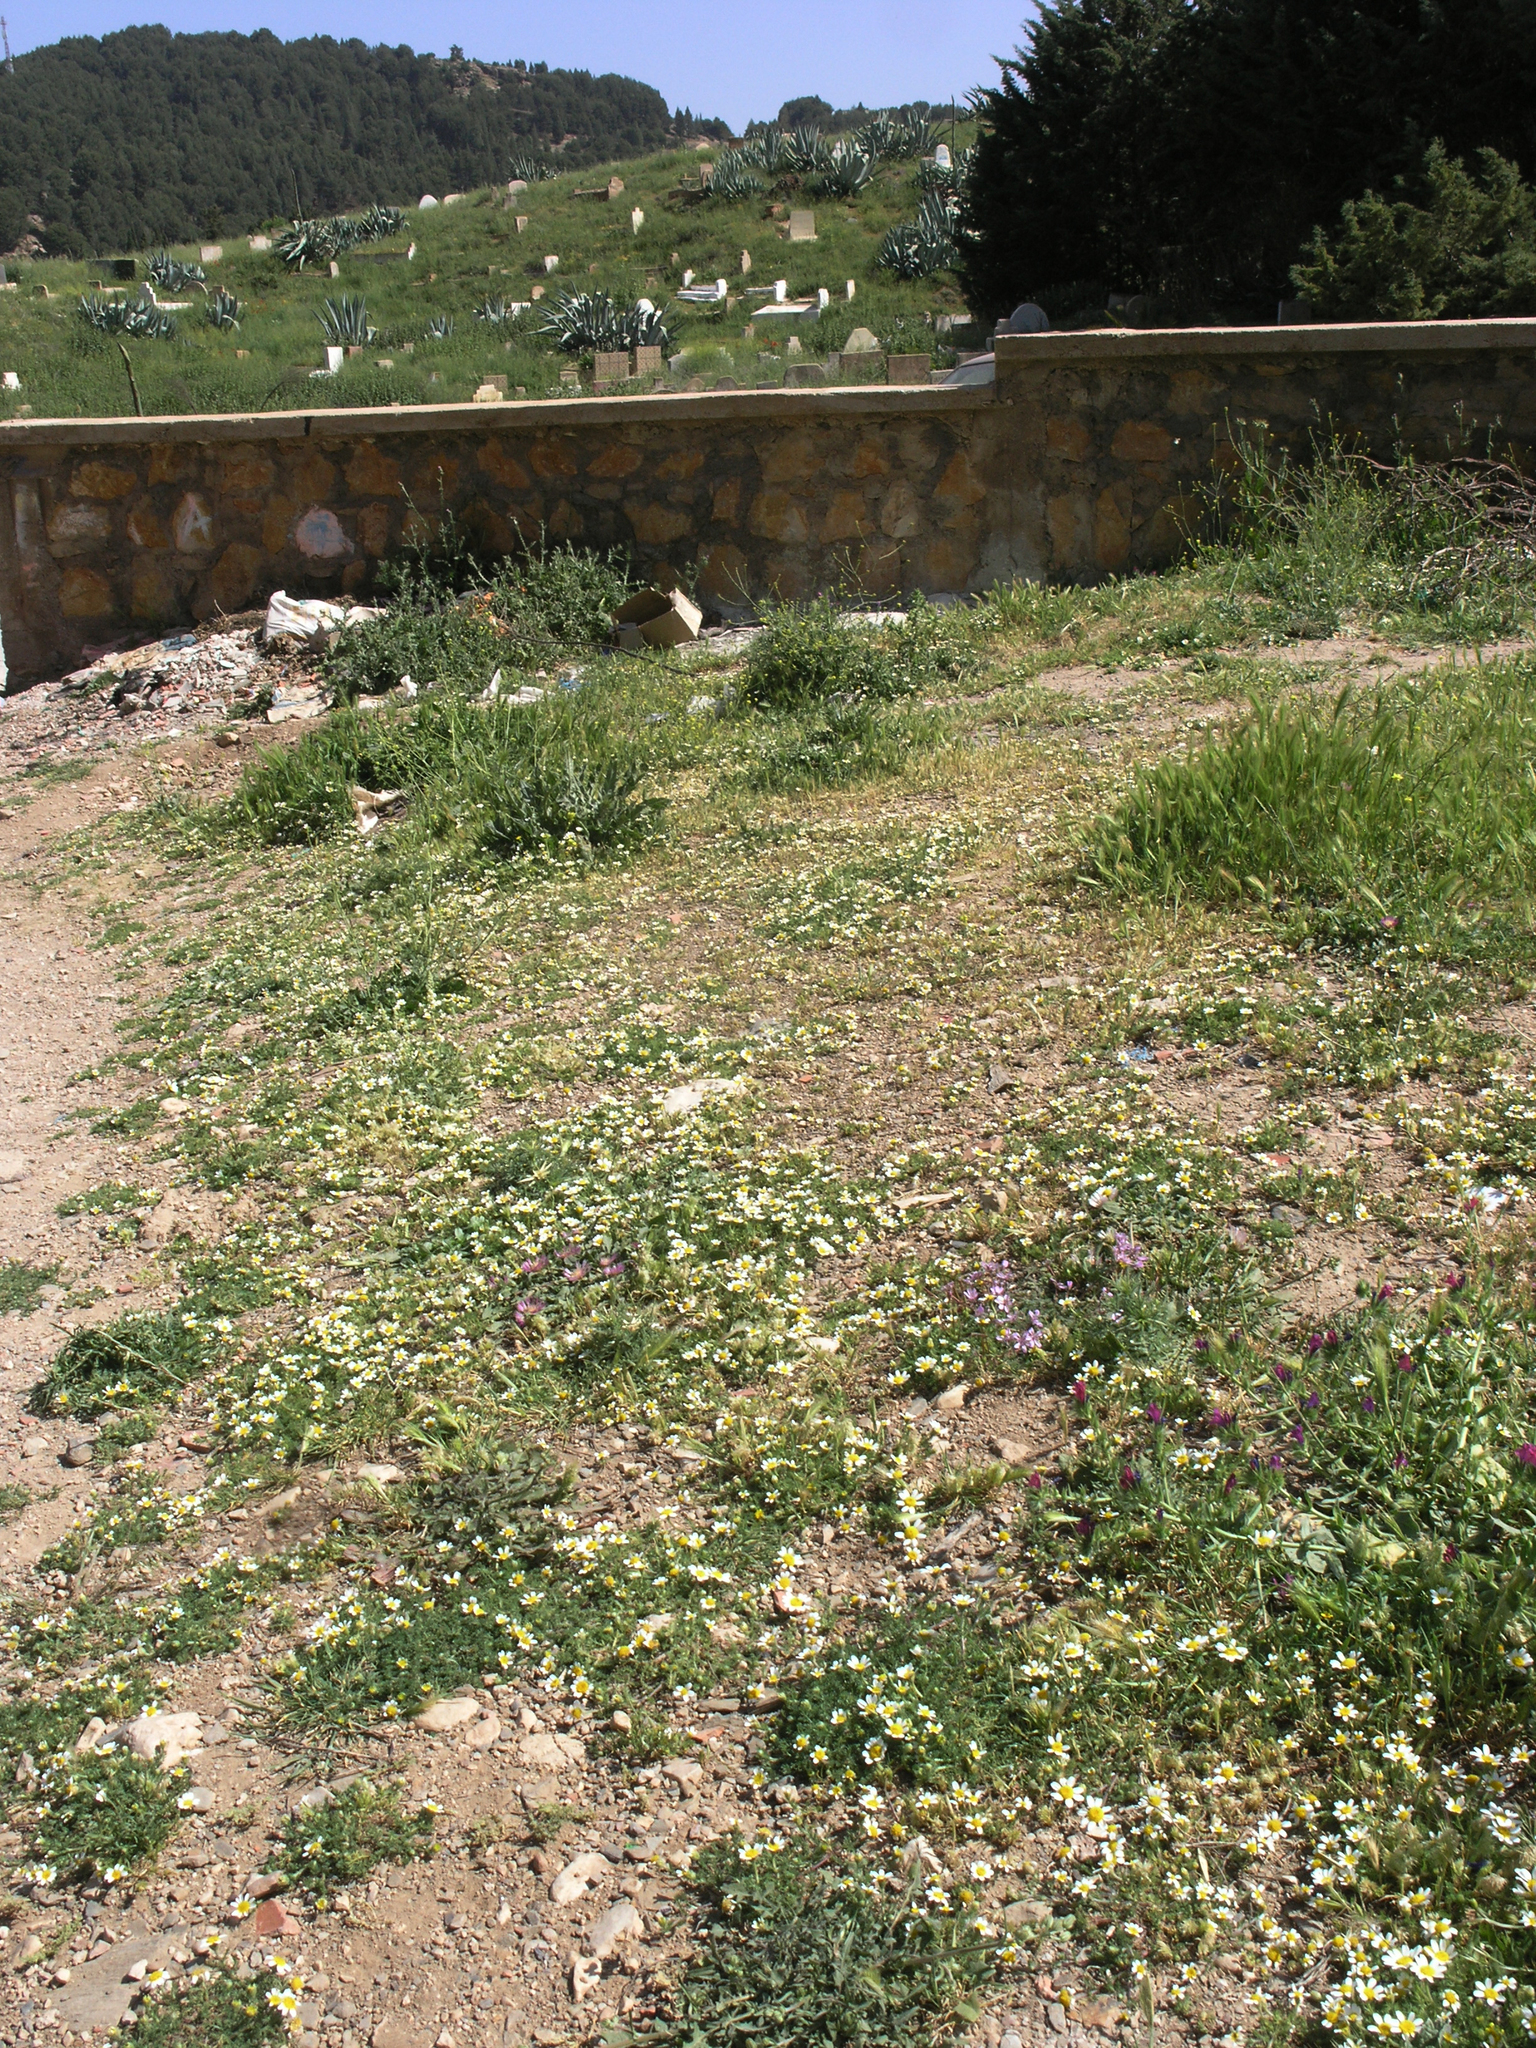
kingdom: Plantae
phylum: Tracheophyta
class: Magnoliopsida
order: Asterales
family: Asteraceae
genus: Anacyclus
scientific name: Anacyclus clavatus
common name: Whitebuttons
